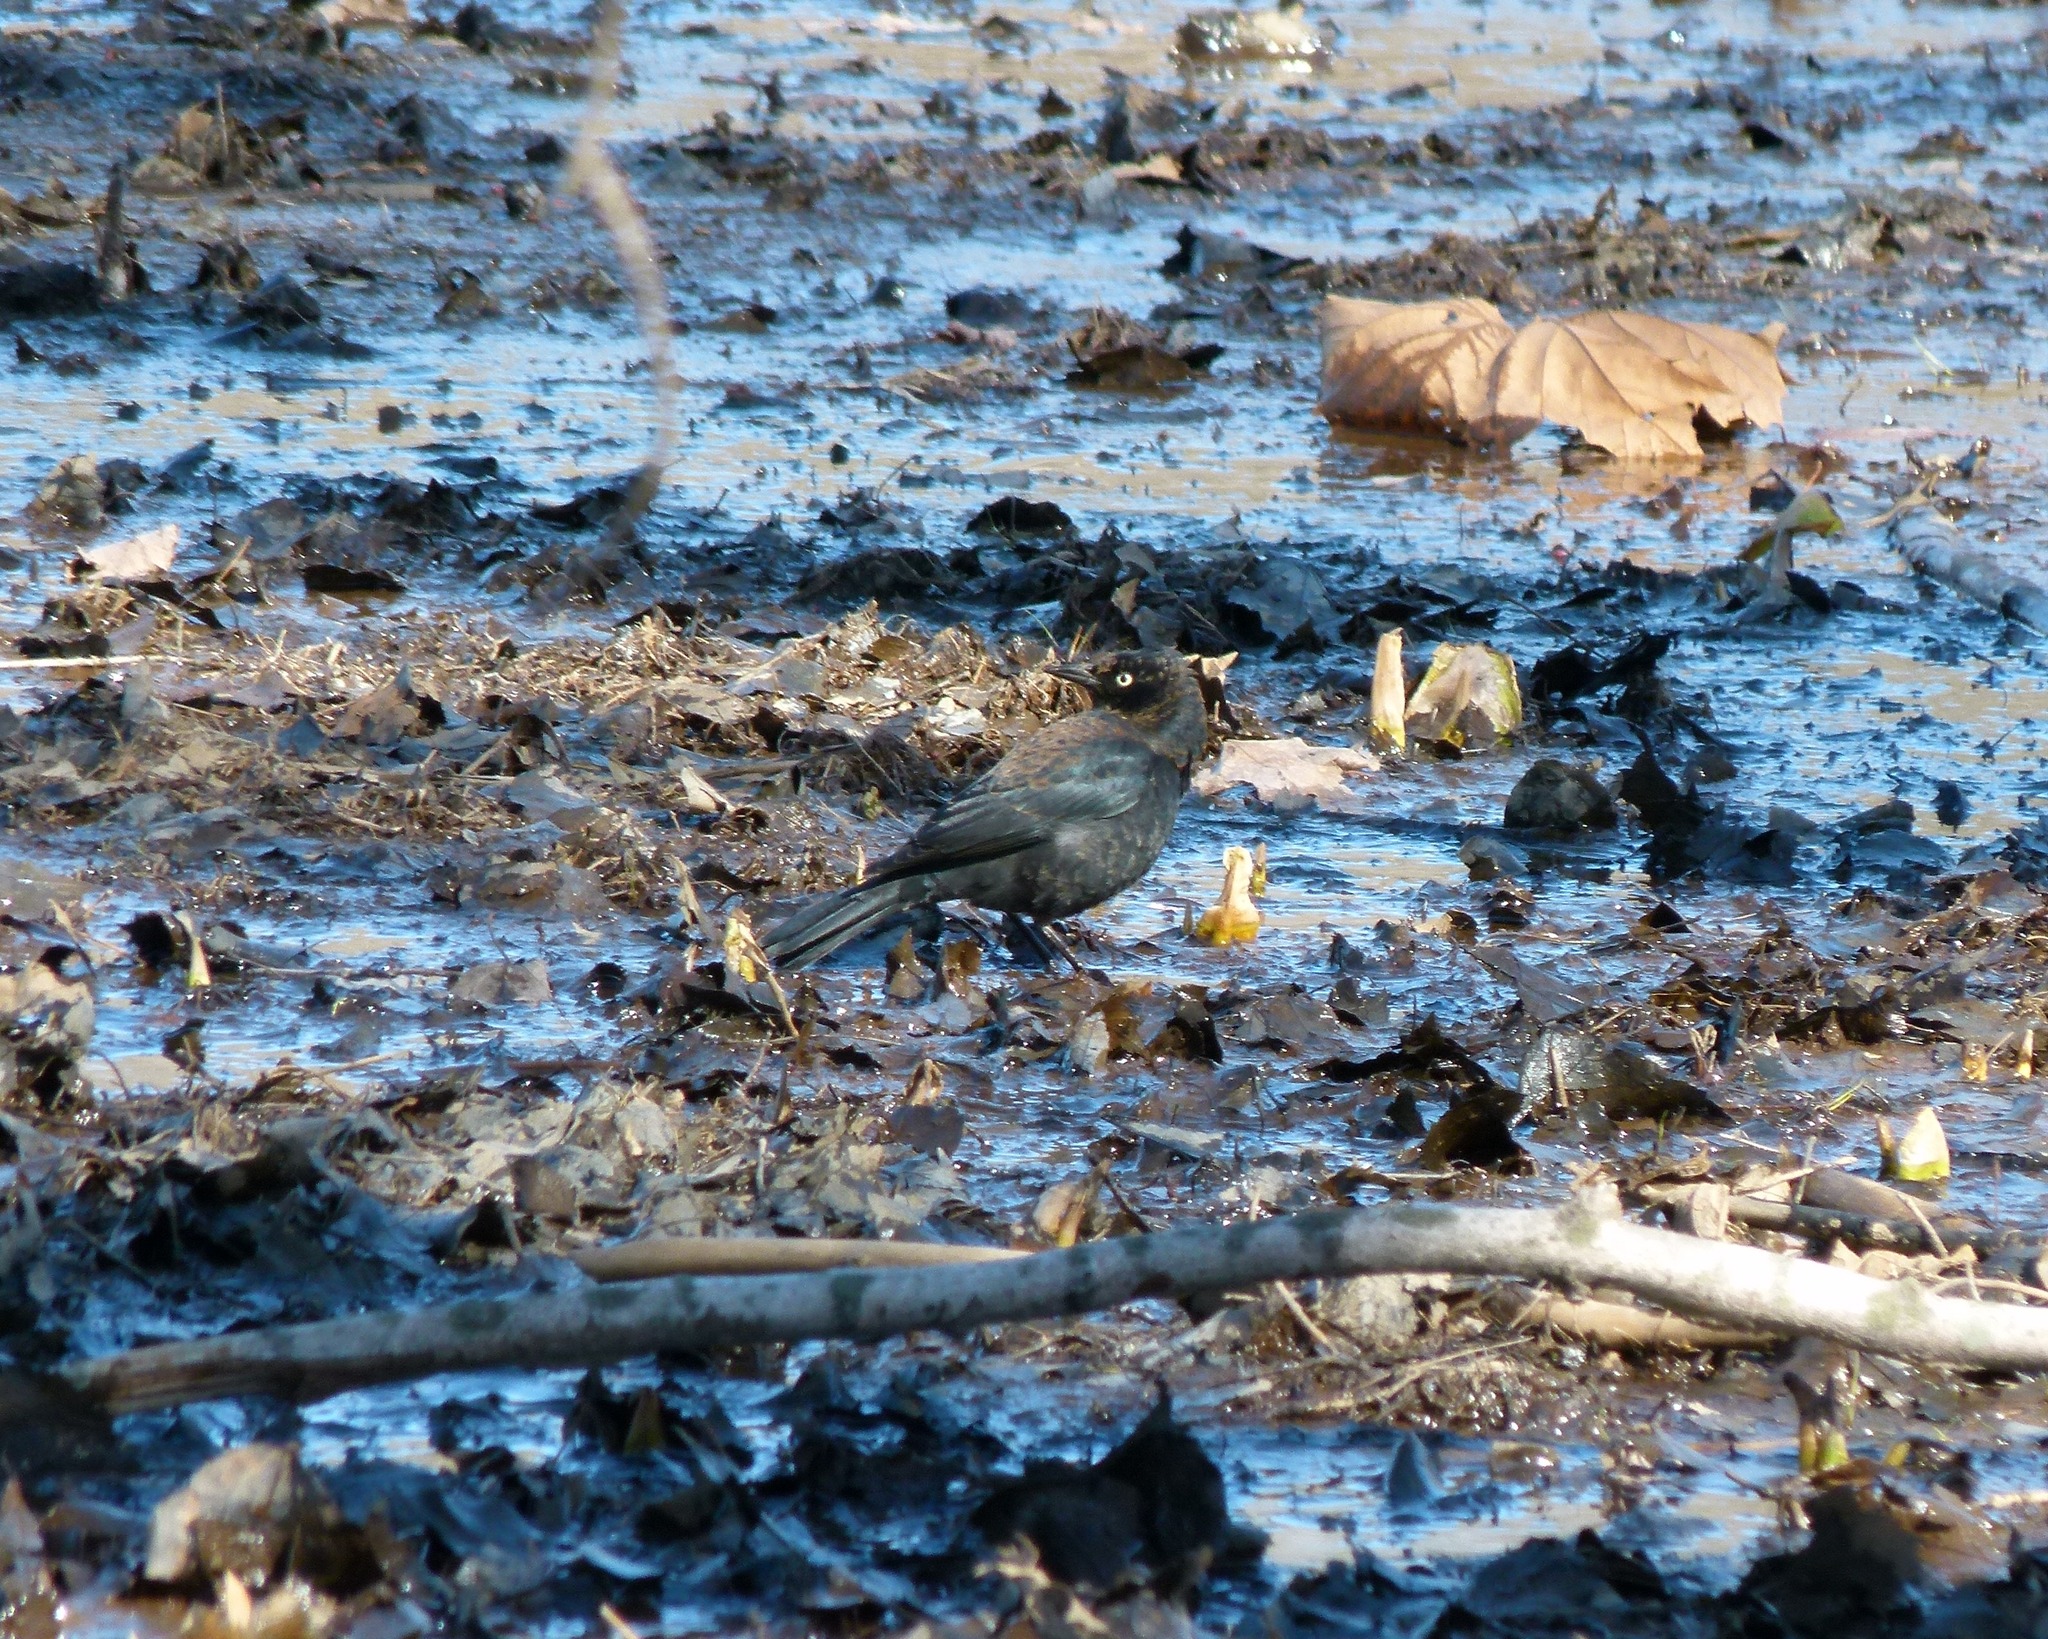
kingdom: Animalia
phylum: Chordata
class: Aves
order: Passeriformes
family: Icteridae
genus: Euphagus
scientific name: Euphagus carolinus
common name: Rusty blackbird
